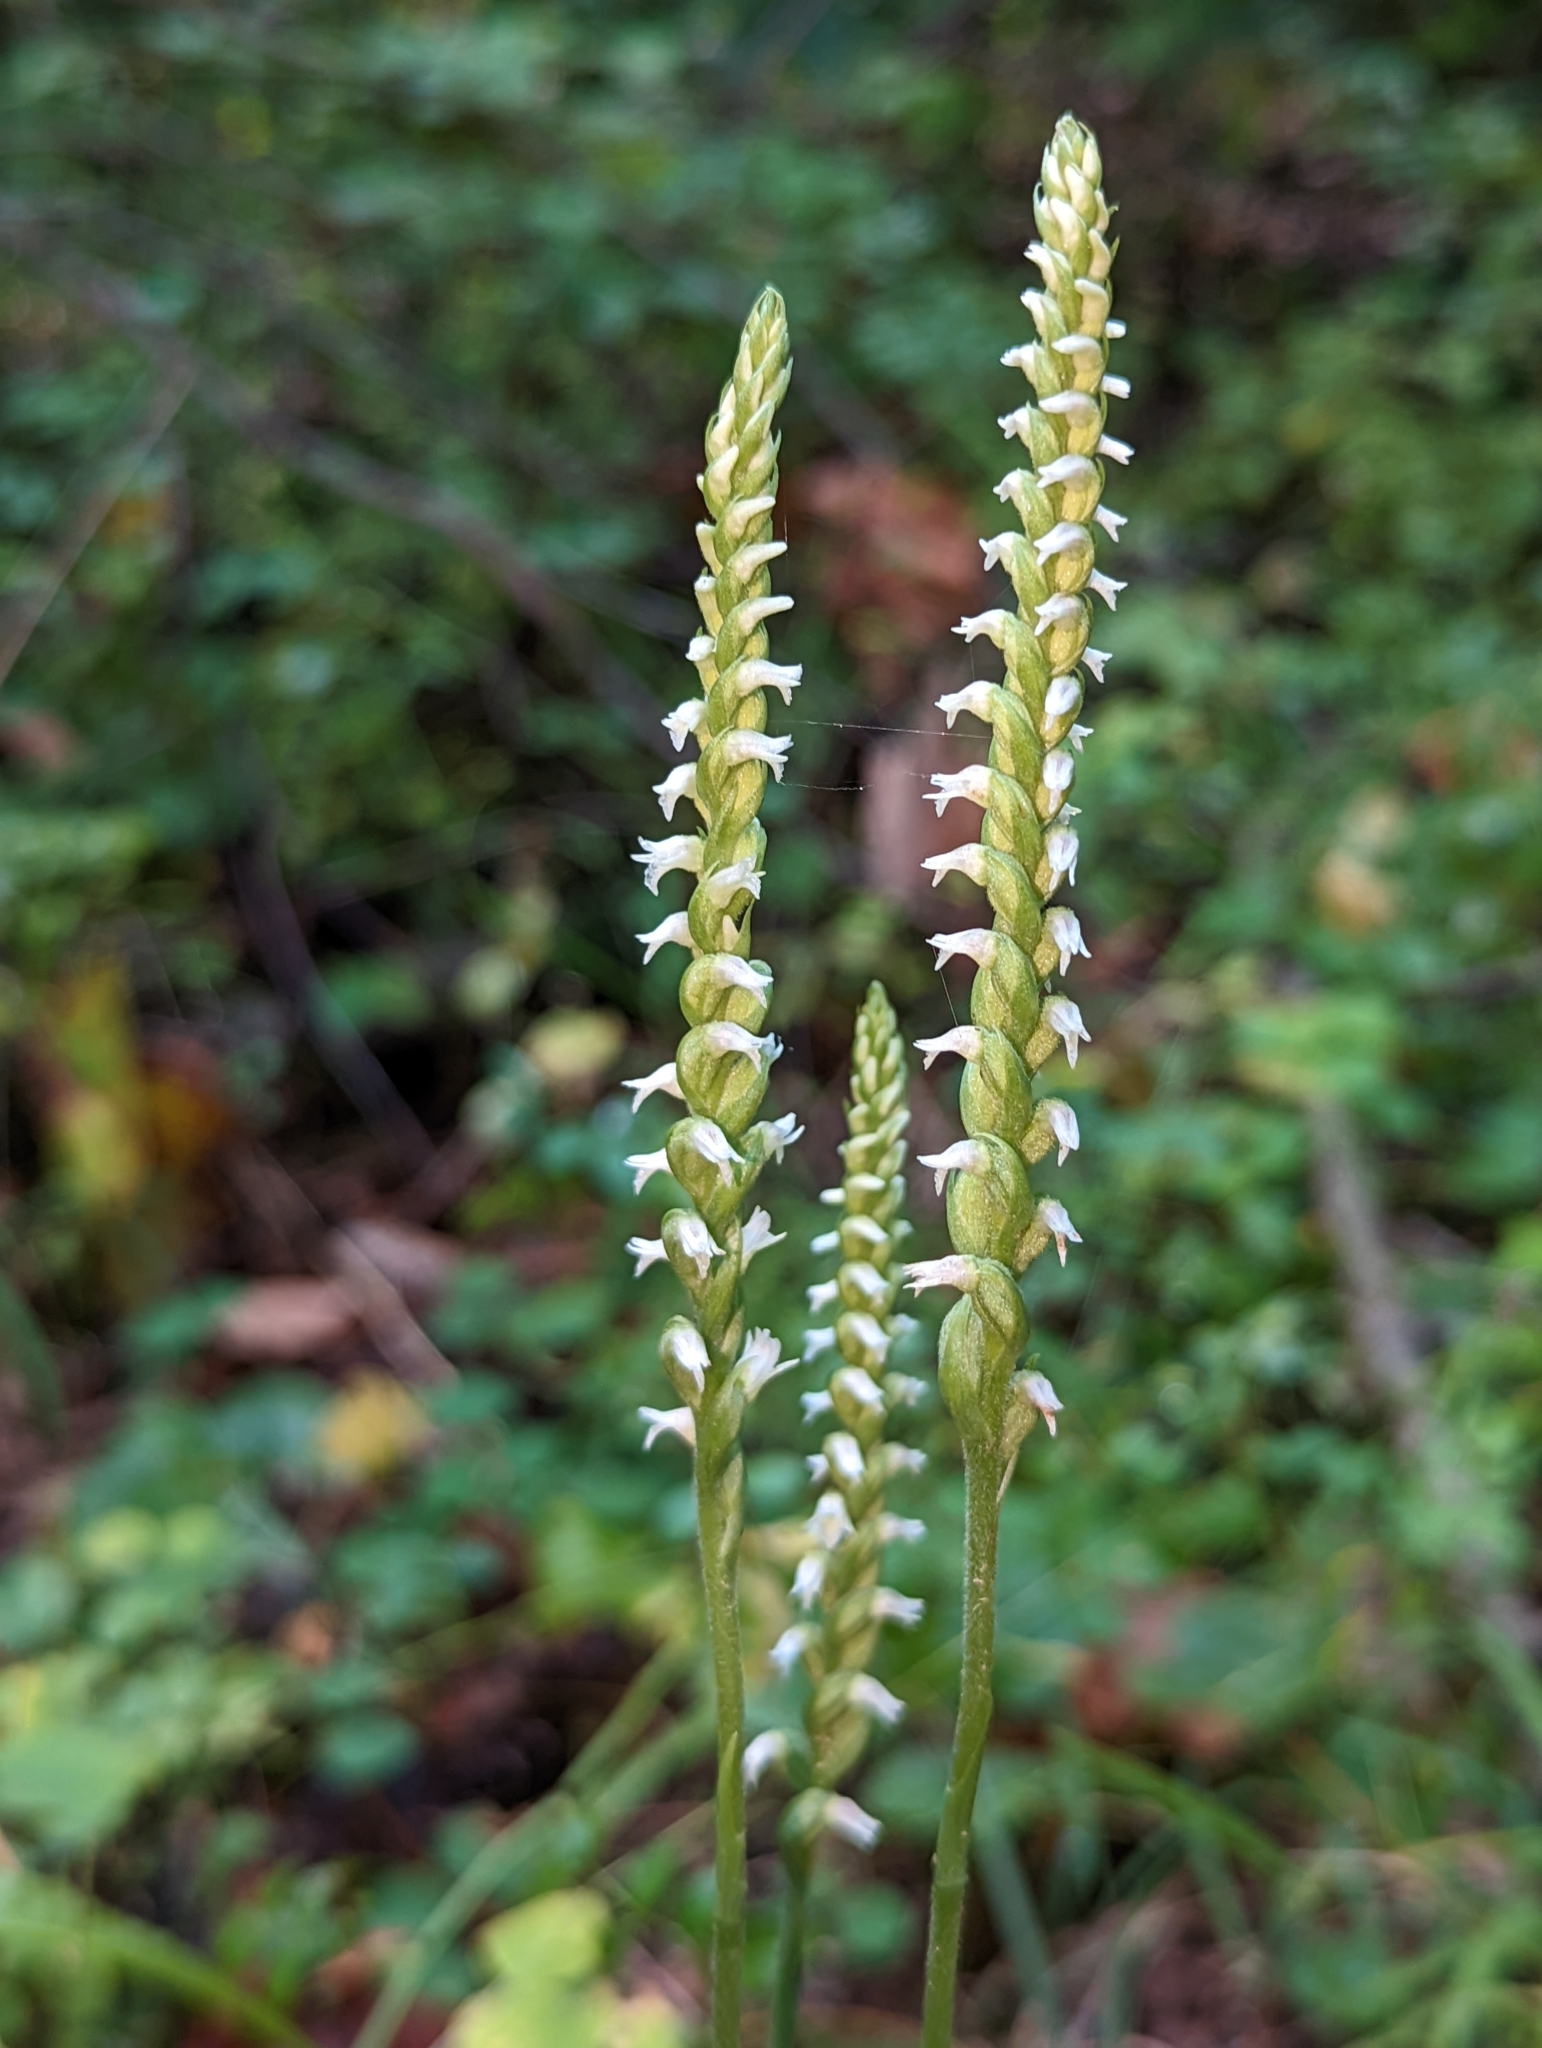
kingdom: Plantae
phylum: Tracheophyta
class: Liliopsida
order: Asparagales
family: Orchidaceae
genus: Spiranthes
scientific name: Spiranthes ovalis
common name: October ladies'-tresses
